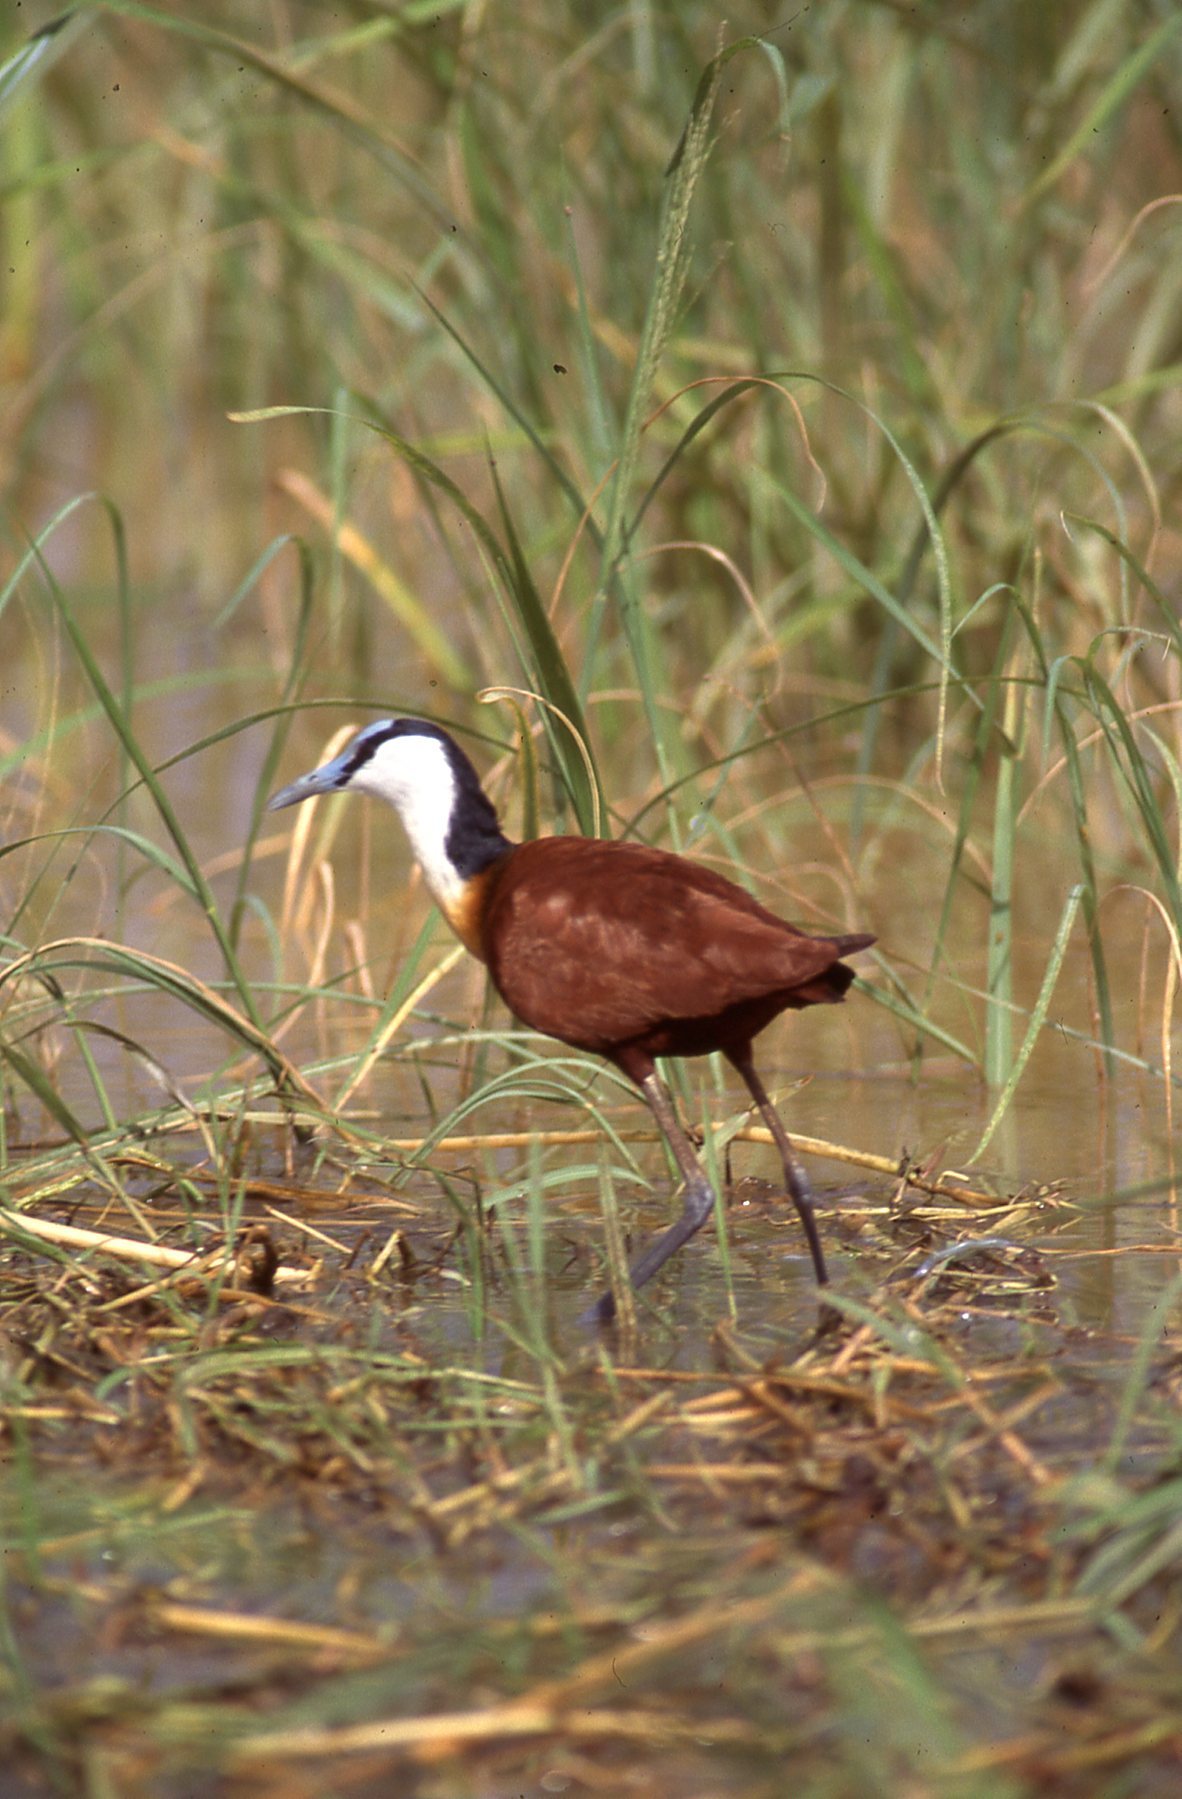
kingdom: Animalia
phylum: Chordata
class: Aves
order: Charadriiformes
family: Jacanidae
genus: Actophilornis
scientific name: Actophilornis africanus
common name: African jacana
